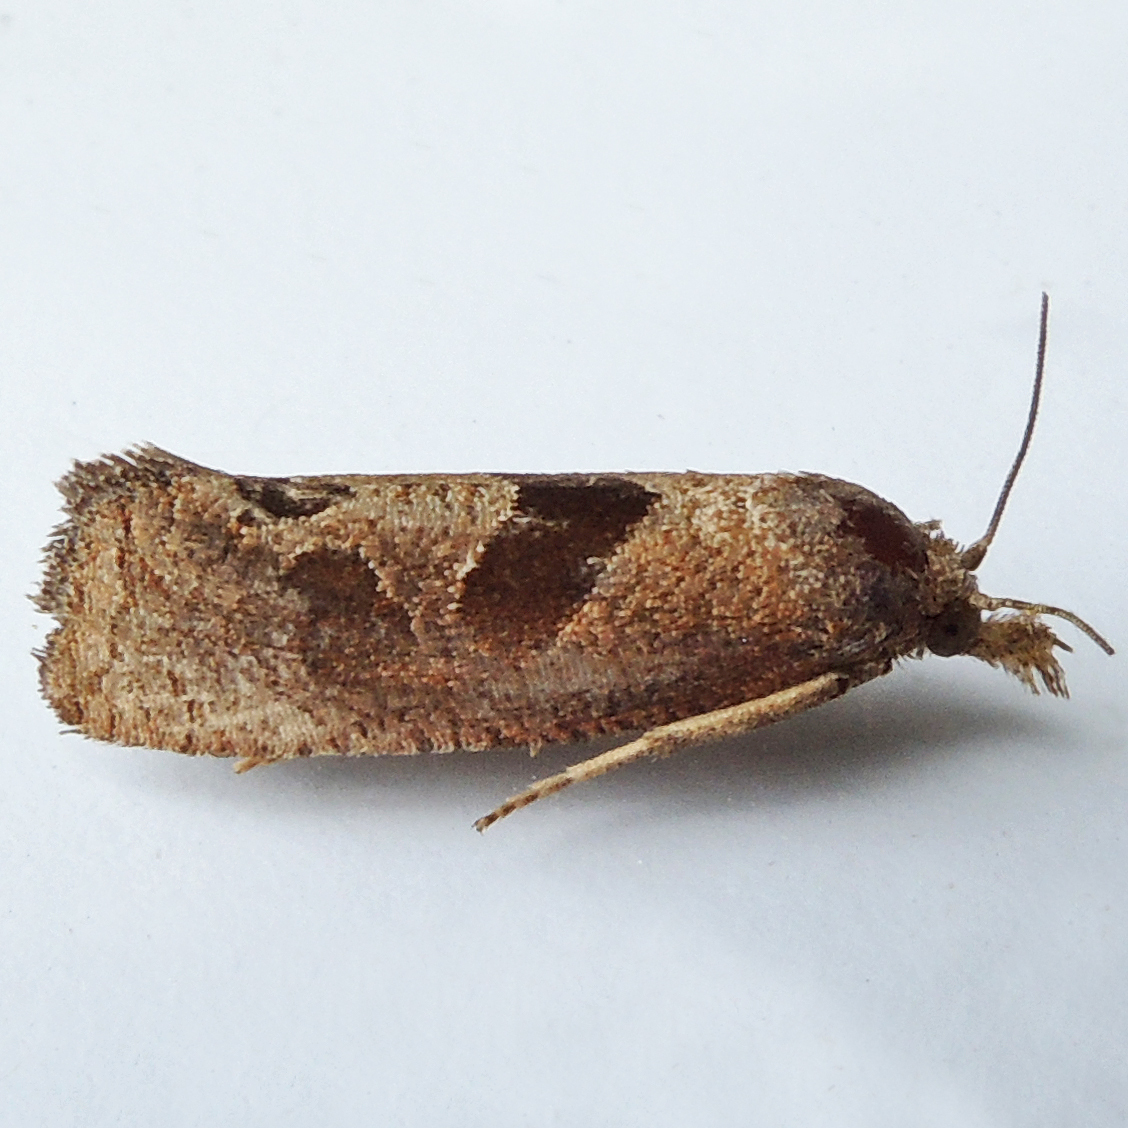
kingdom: Animalia
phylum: Arthropoda
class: Insecta
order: Lepidoptera
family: Tortricidae
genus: Pelochrista
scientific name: Pelochrista similiana
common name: Similar eucosma
